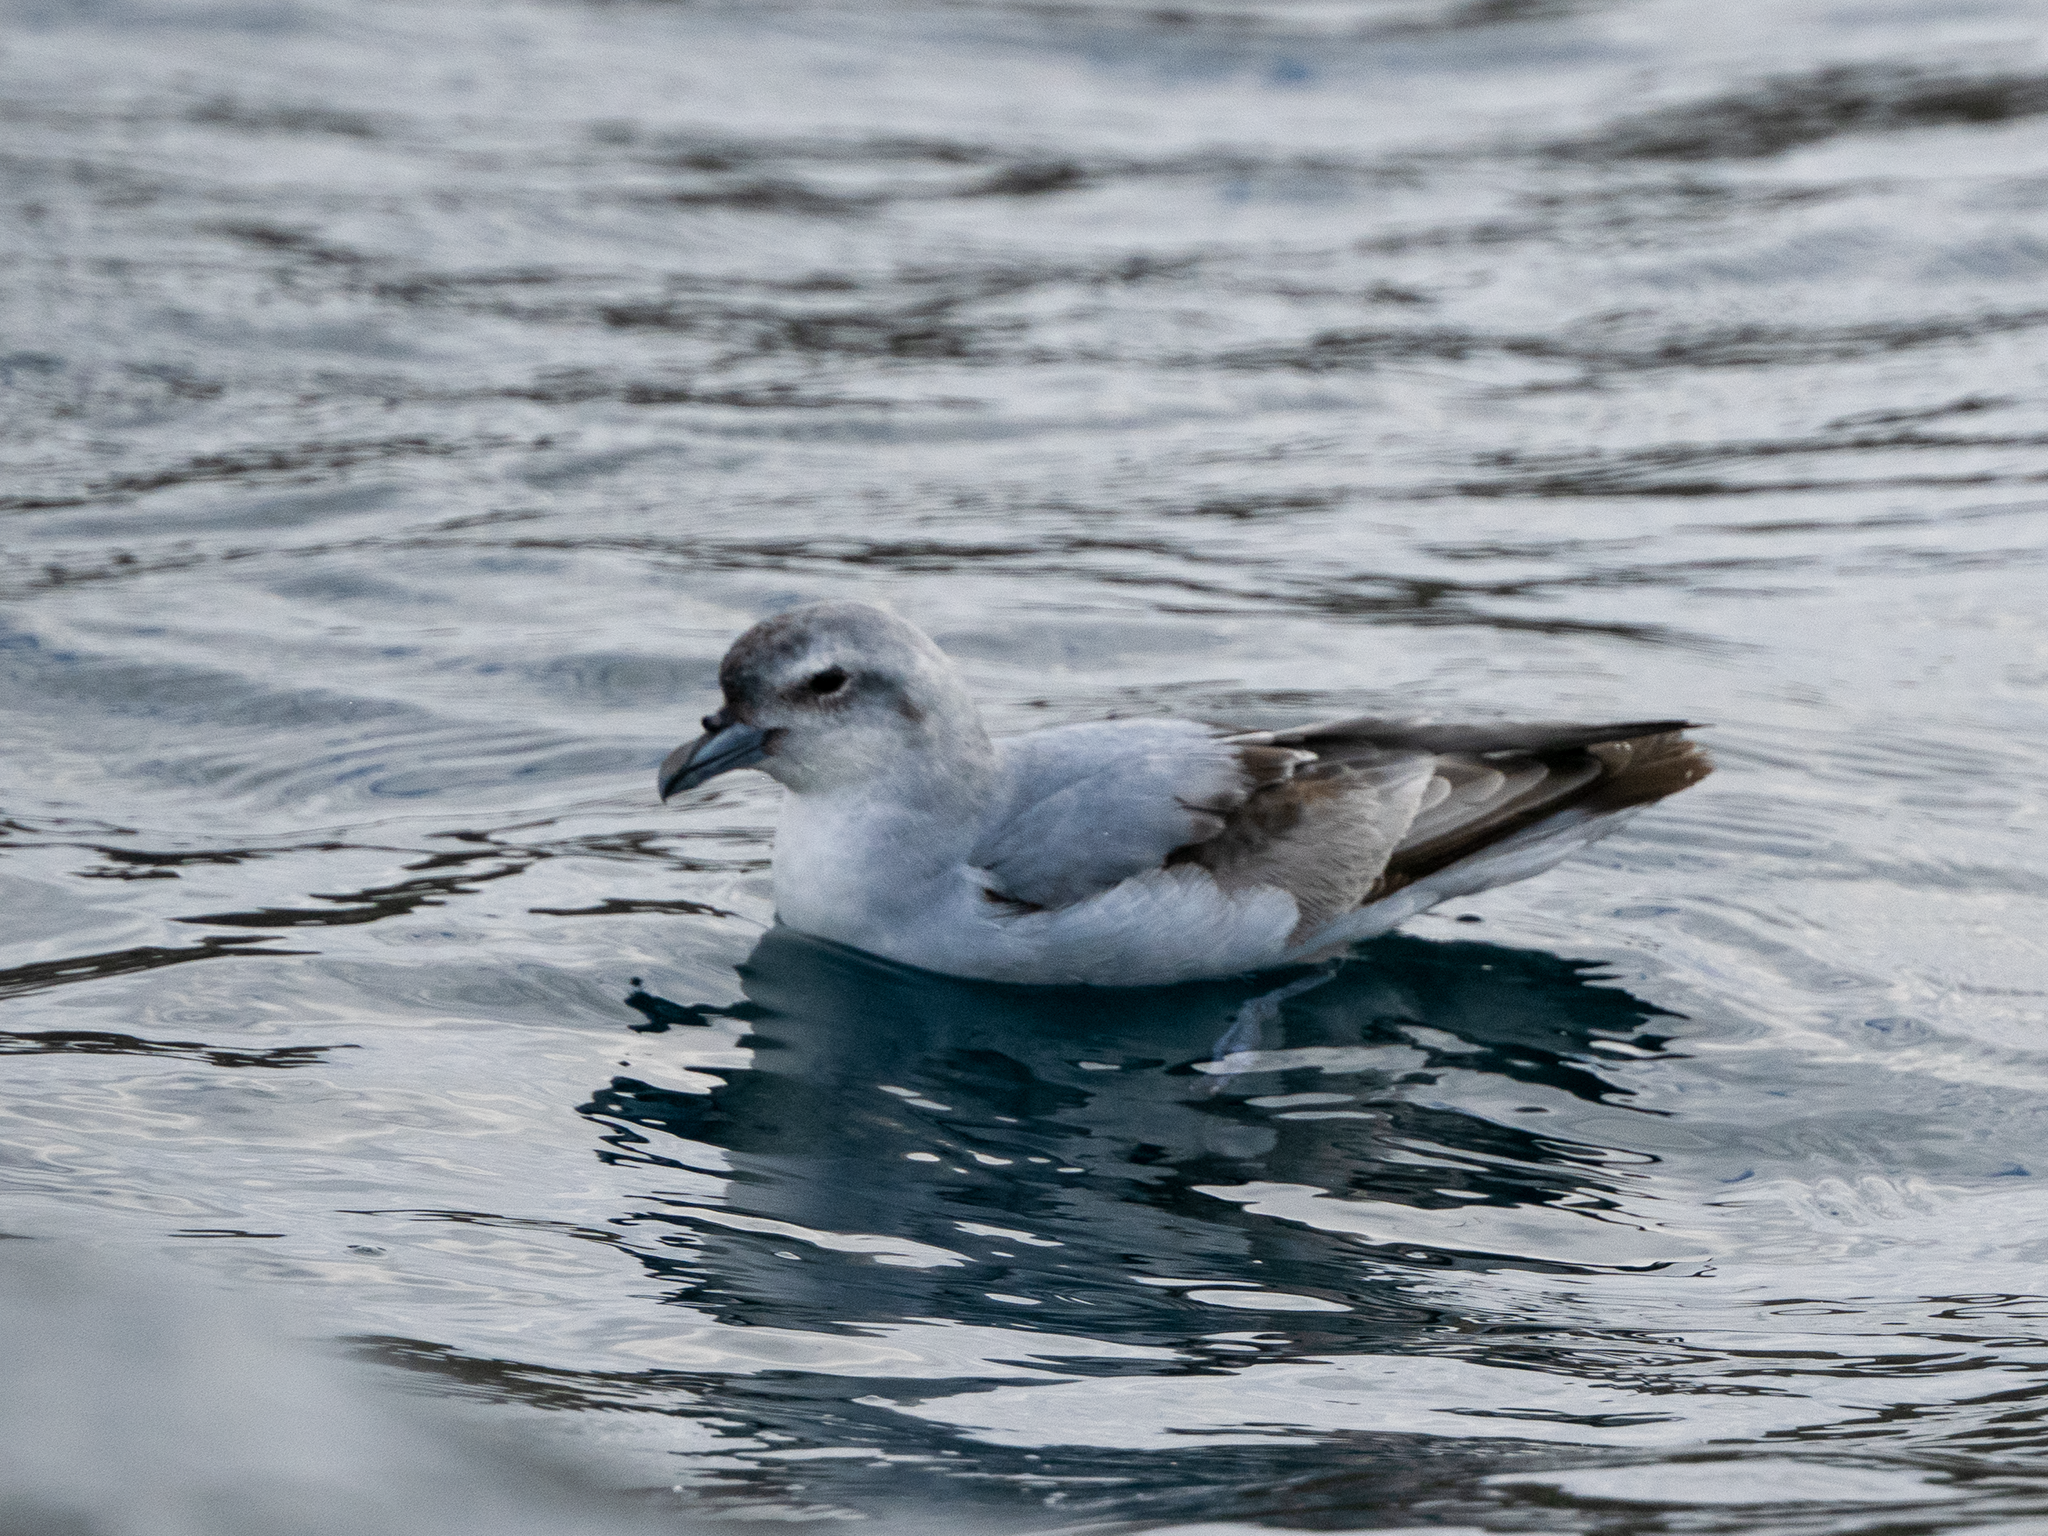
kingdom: Animalia
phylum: Chordata
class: Aves
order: Procellariiformes
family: Procellariidae
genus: Pachyptila
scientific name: Pachyptila crassirostris
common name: Fulmar prion
